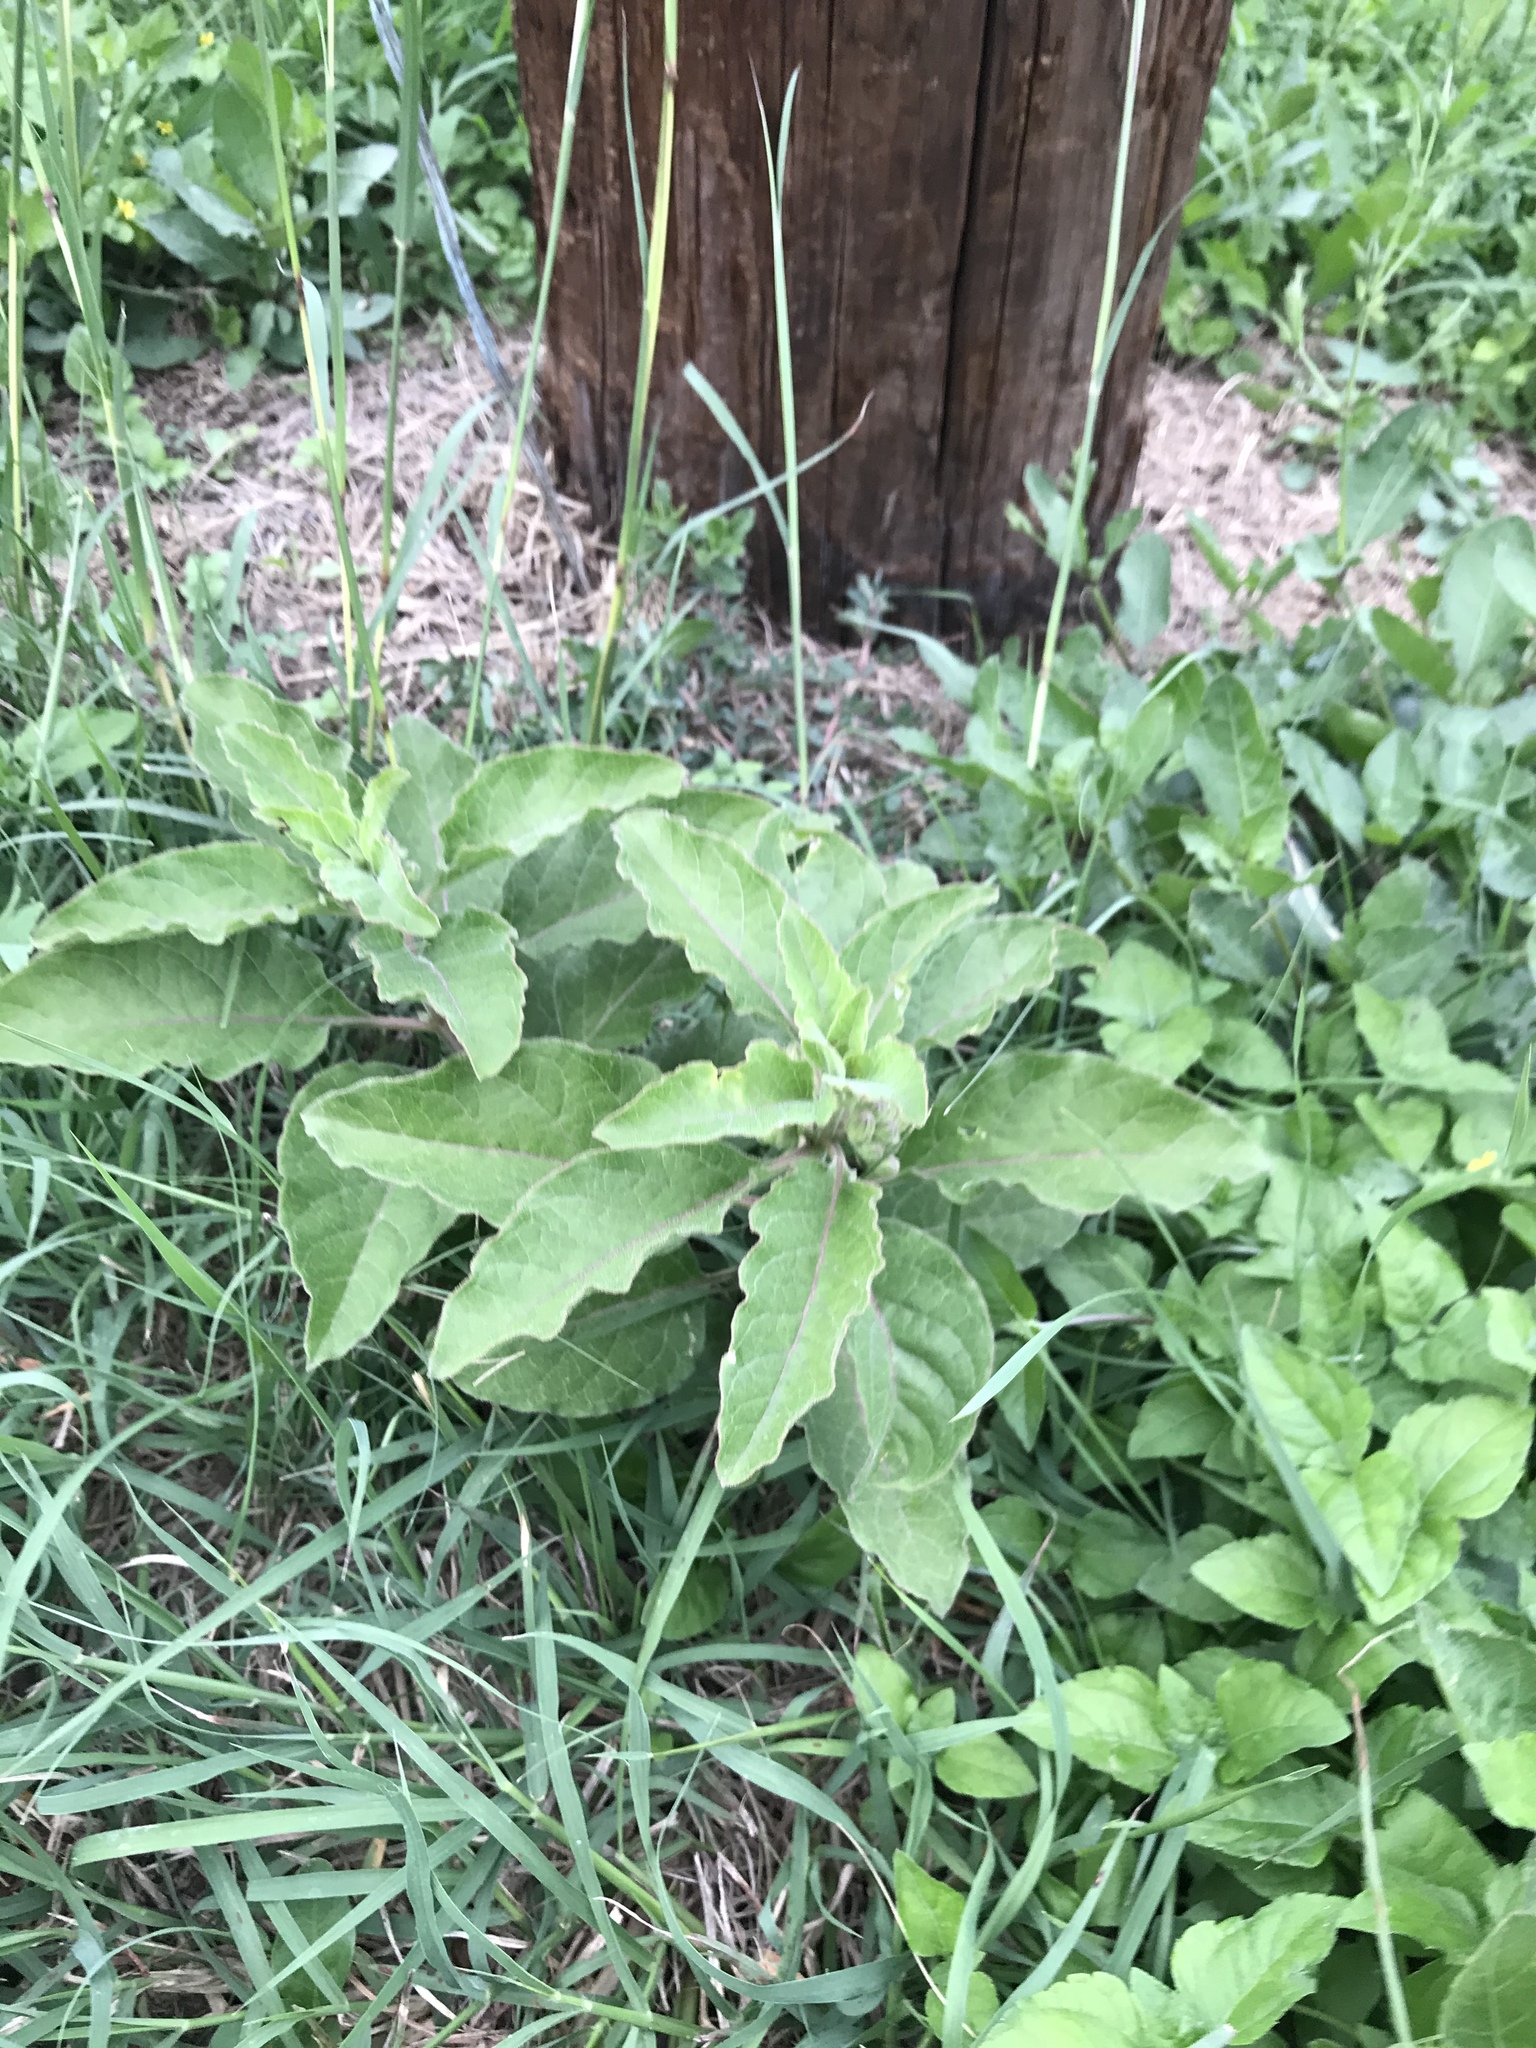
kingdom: Plantae
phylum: Tracheophyta
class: Magnoliopsida
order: Gentianales
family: Apocynaceae
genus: Asclepias
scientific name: Asclepias oenotheroides
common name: Zizotes milkweed
